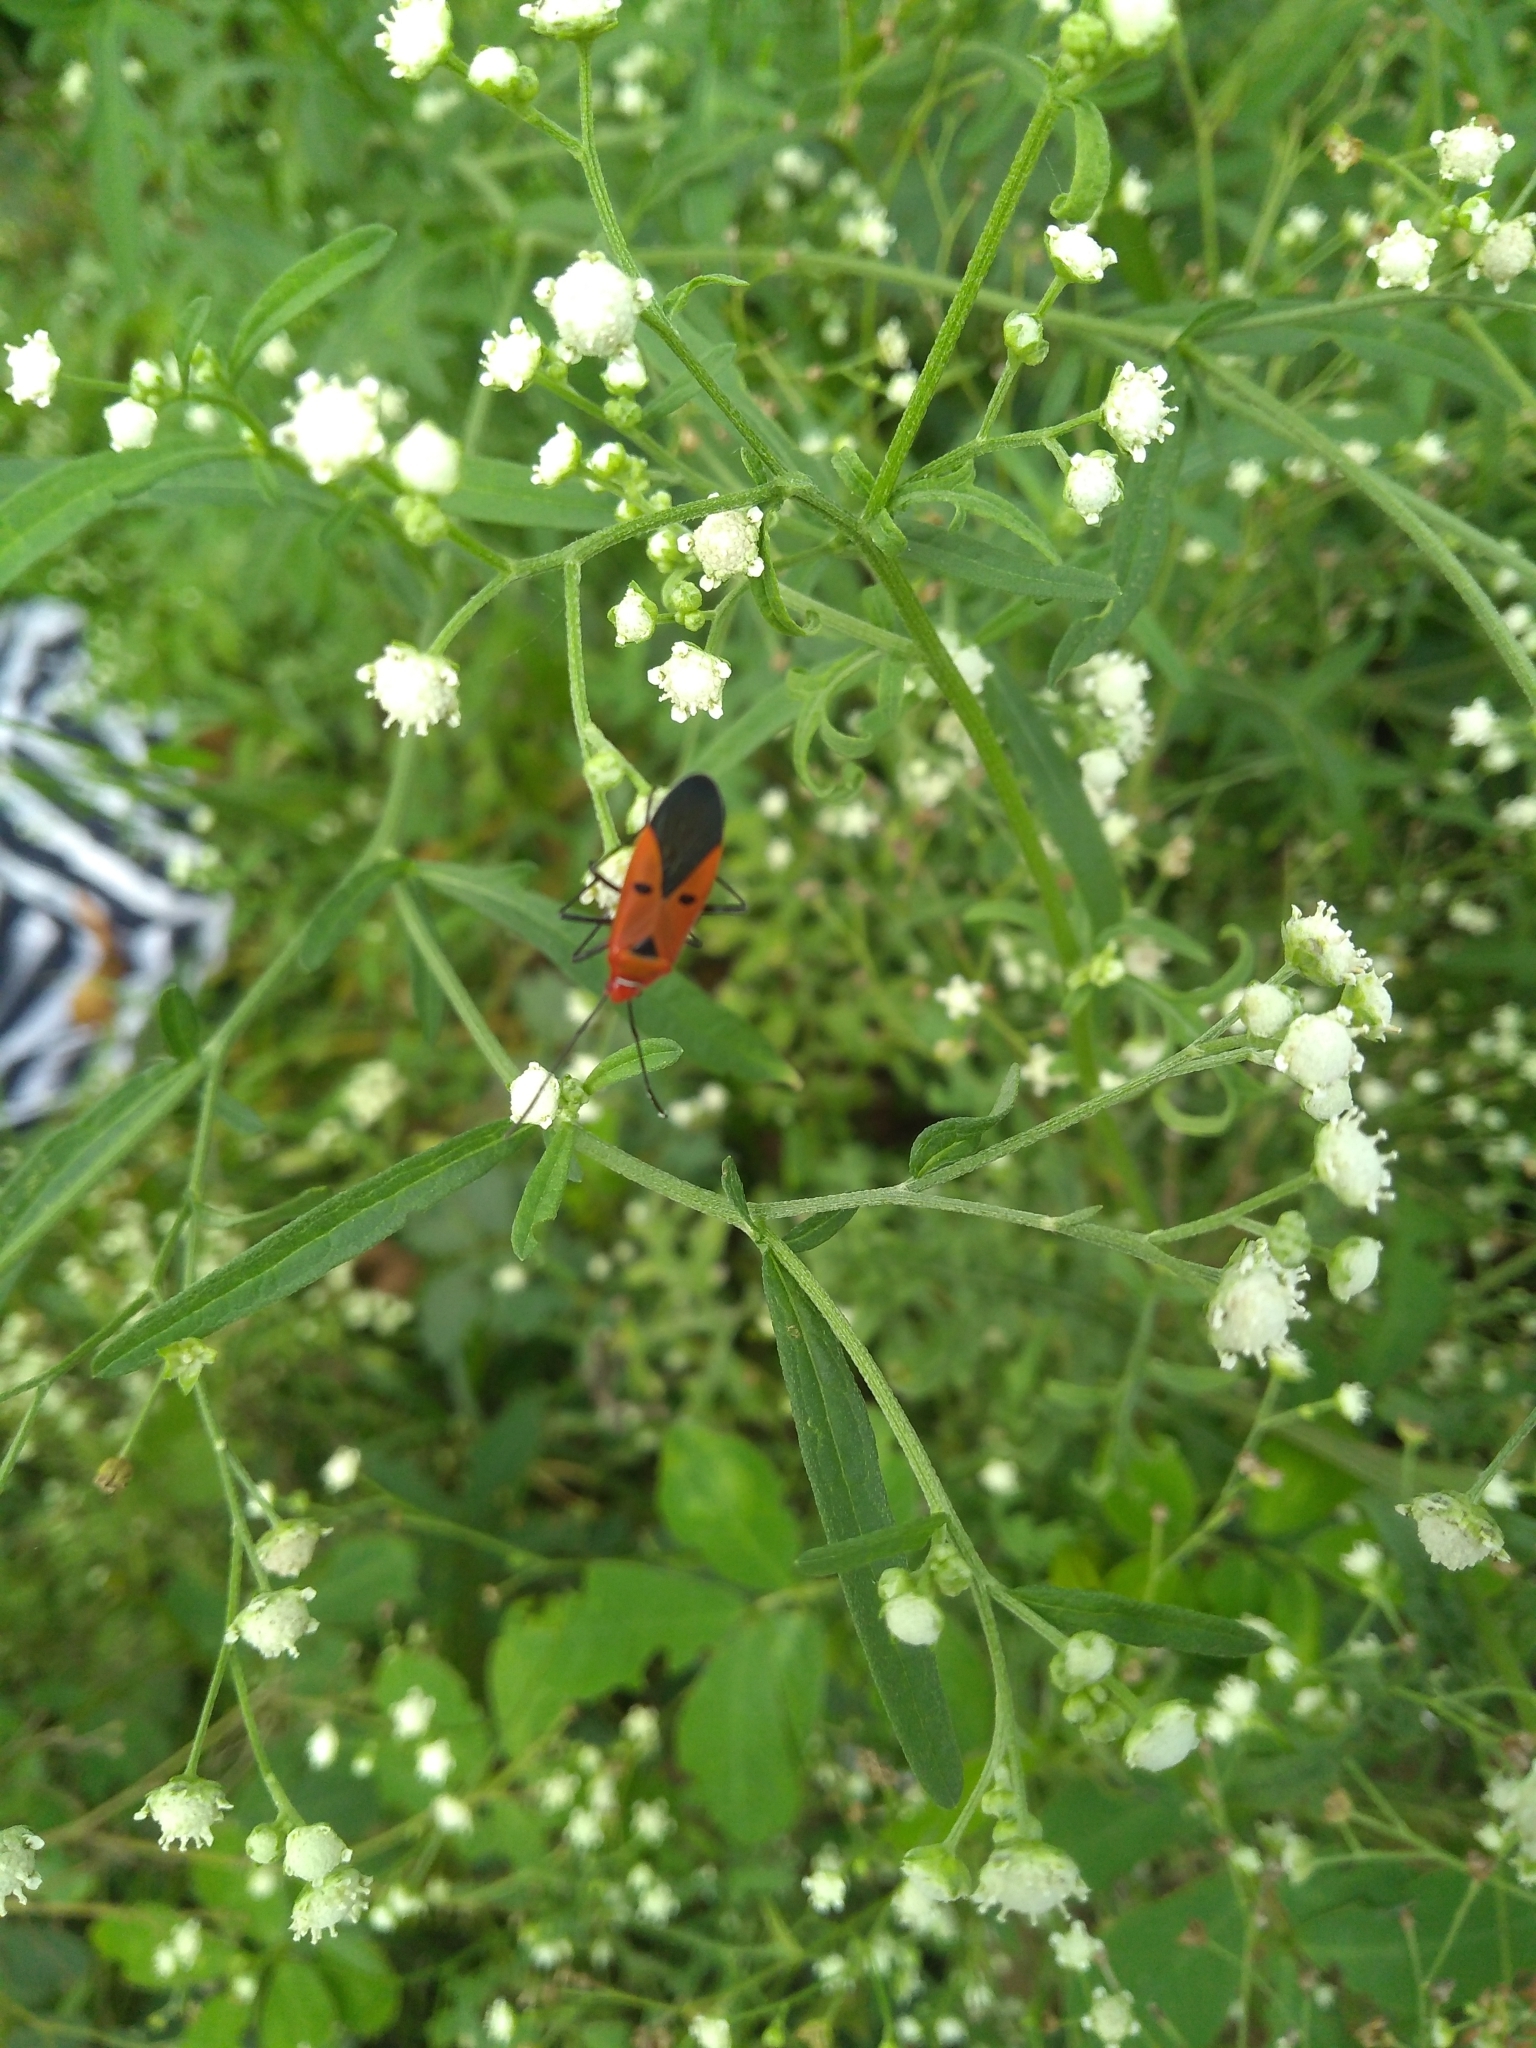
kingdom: Animalia
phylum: Arthropoda
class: Insecta
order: Hemiptera
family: Pyrrhocoridae
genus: Dysdercus
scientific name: Dysdercus cingulatus
